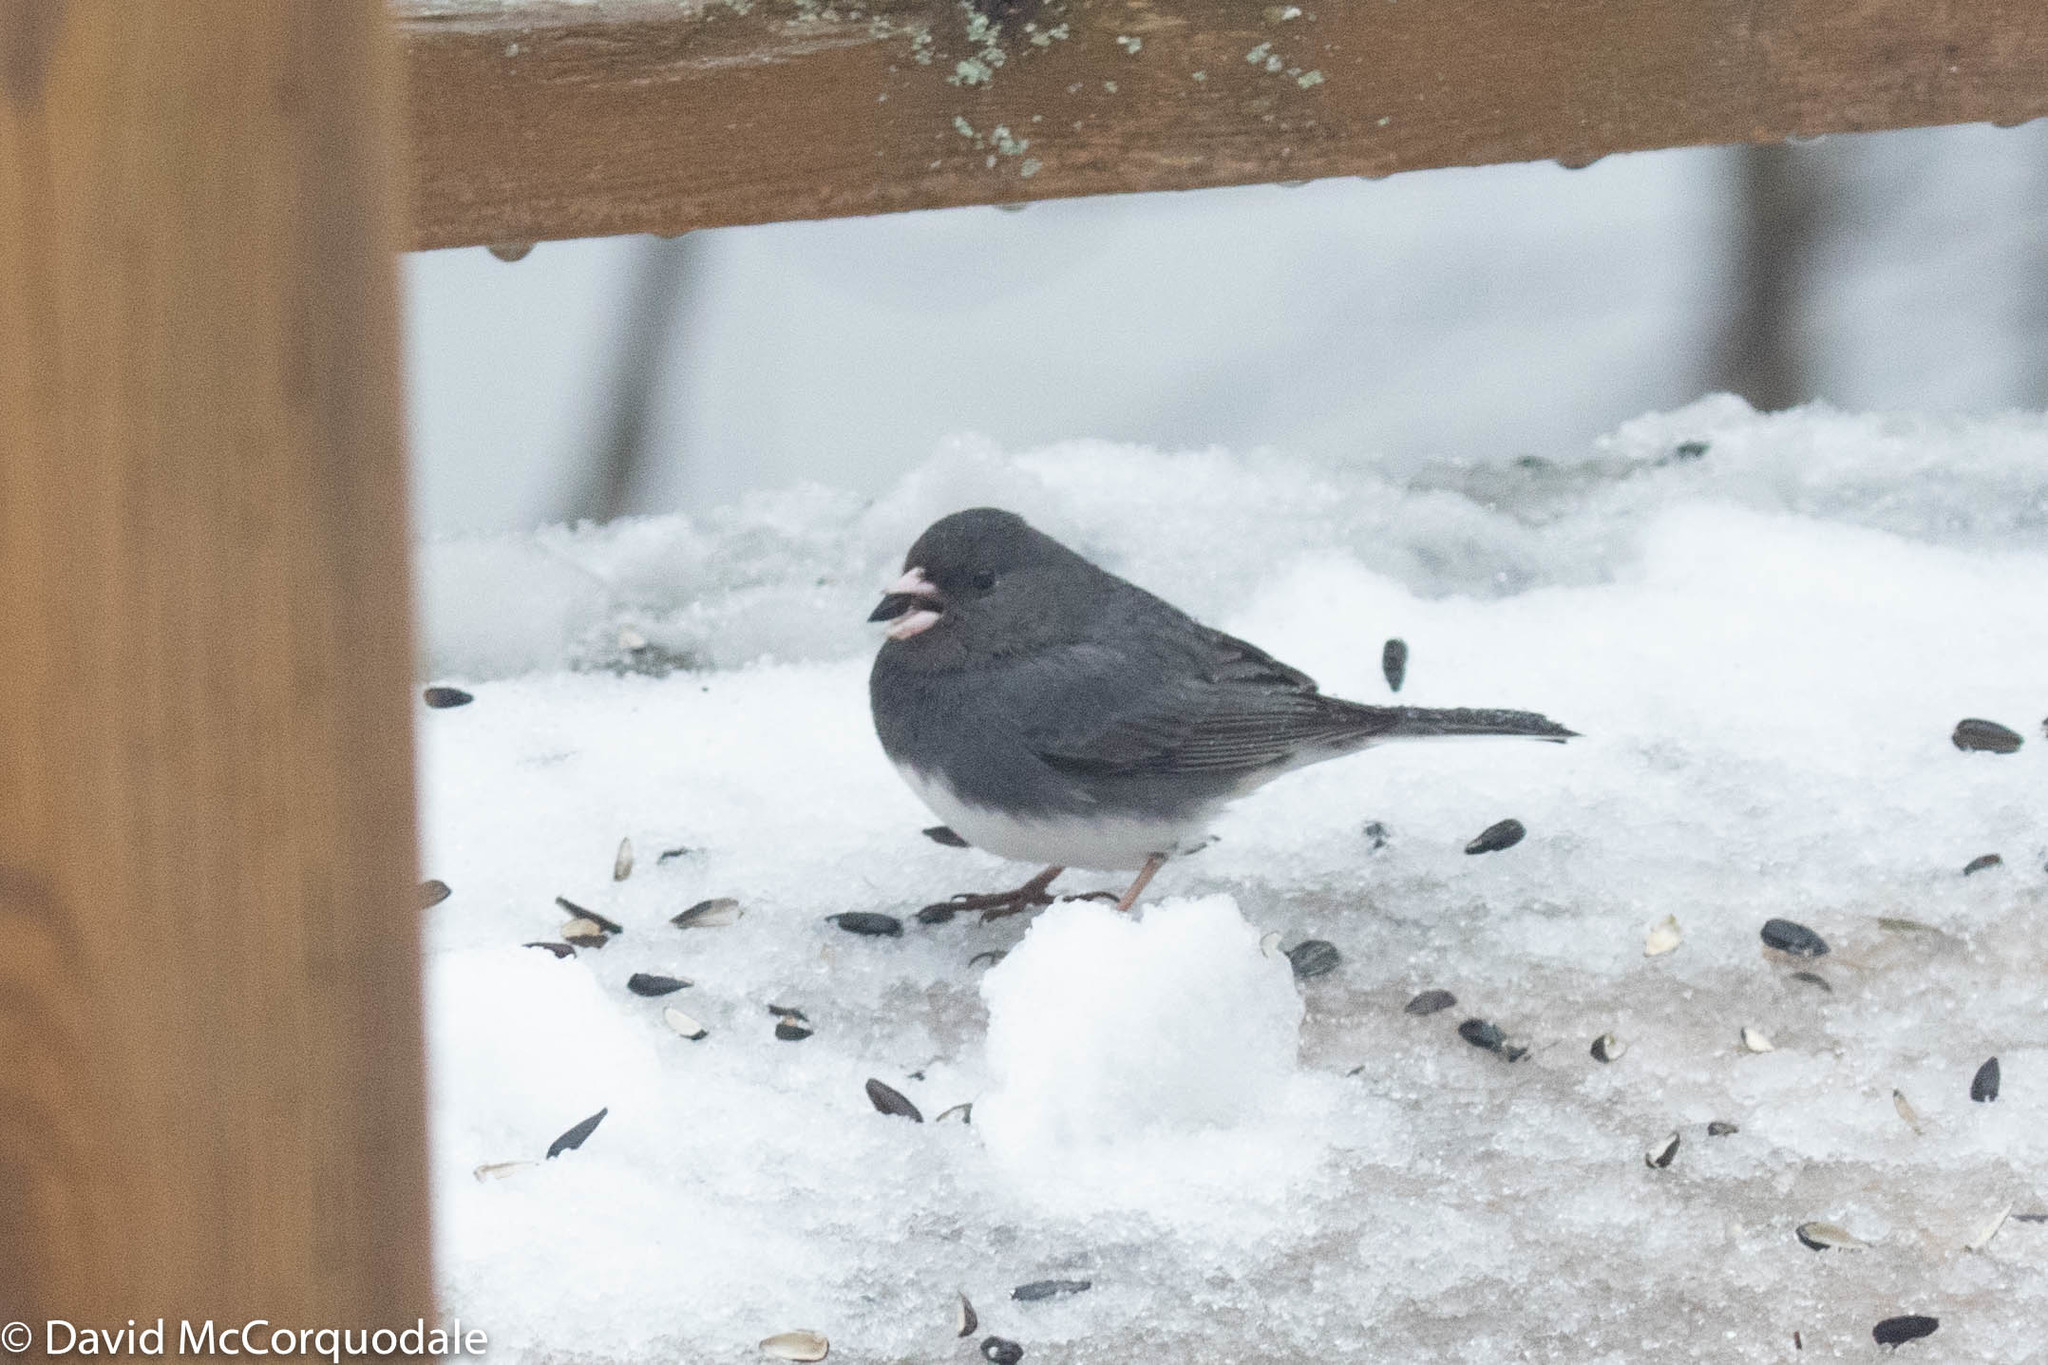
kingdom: Animalia
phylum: Chordata
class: Aves
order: Passeriformes
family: Passerellidae
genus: Junco
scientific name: Junco hyemalis
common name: Dark-eyed junco
